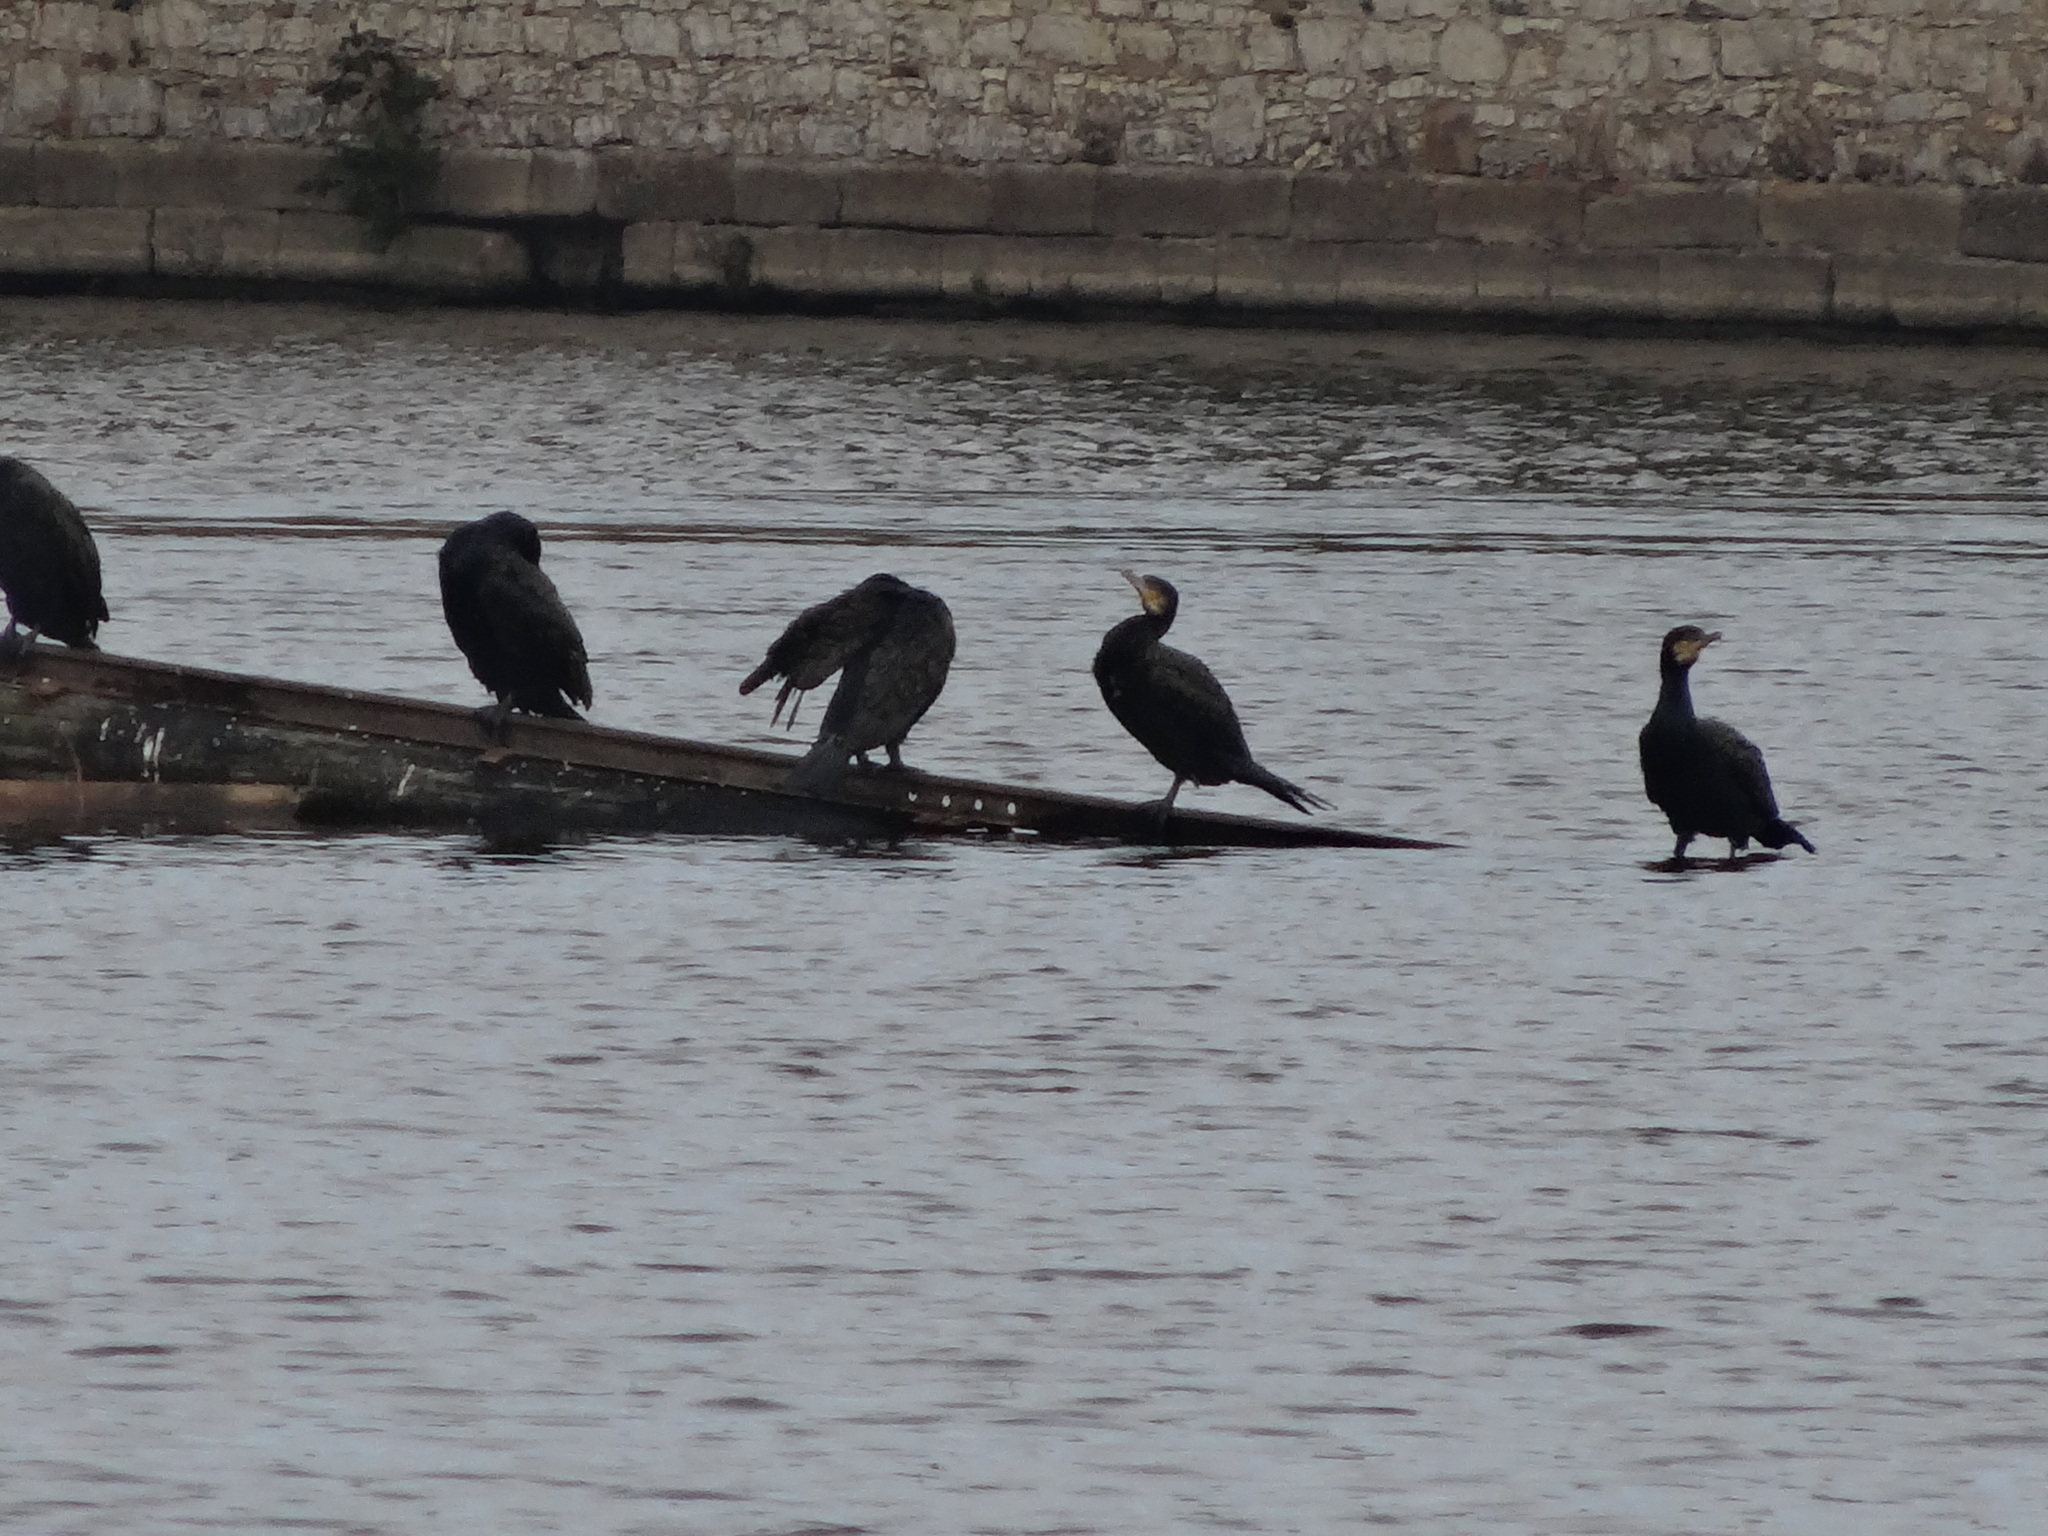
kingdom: Animalia
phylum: Chordata
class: Aves
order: Suliformes
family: Phalacrocoracidae
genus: Phalacrocorax
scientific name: Phalacrocorax carbo
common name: Great cormorant
